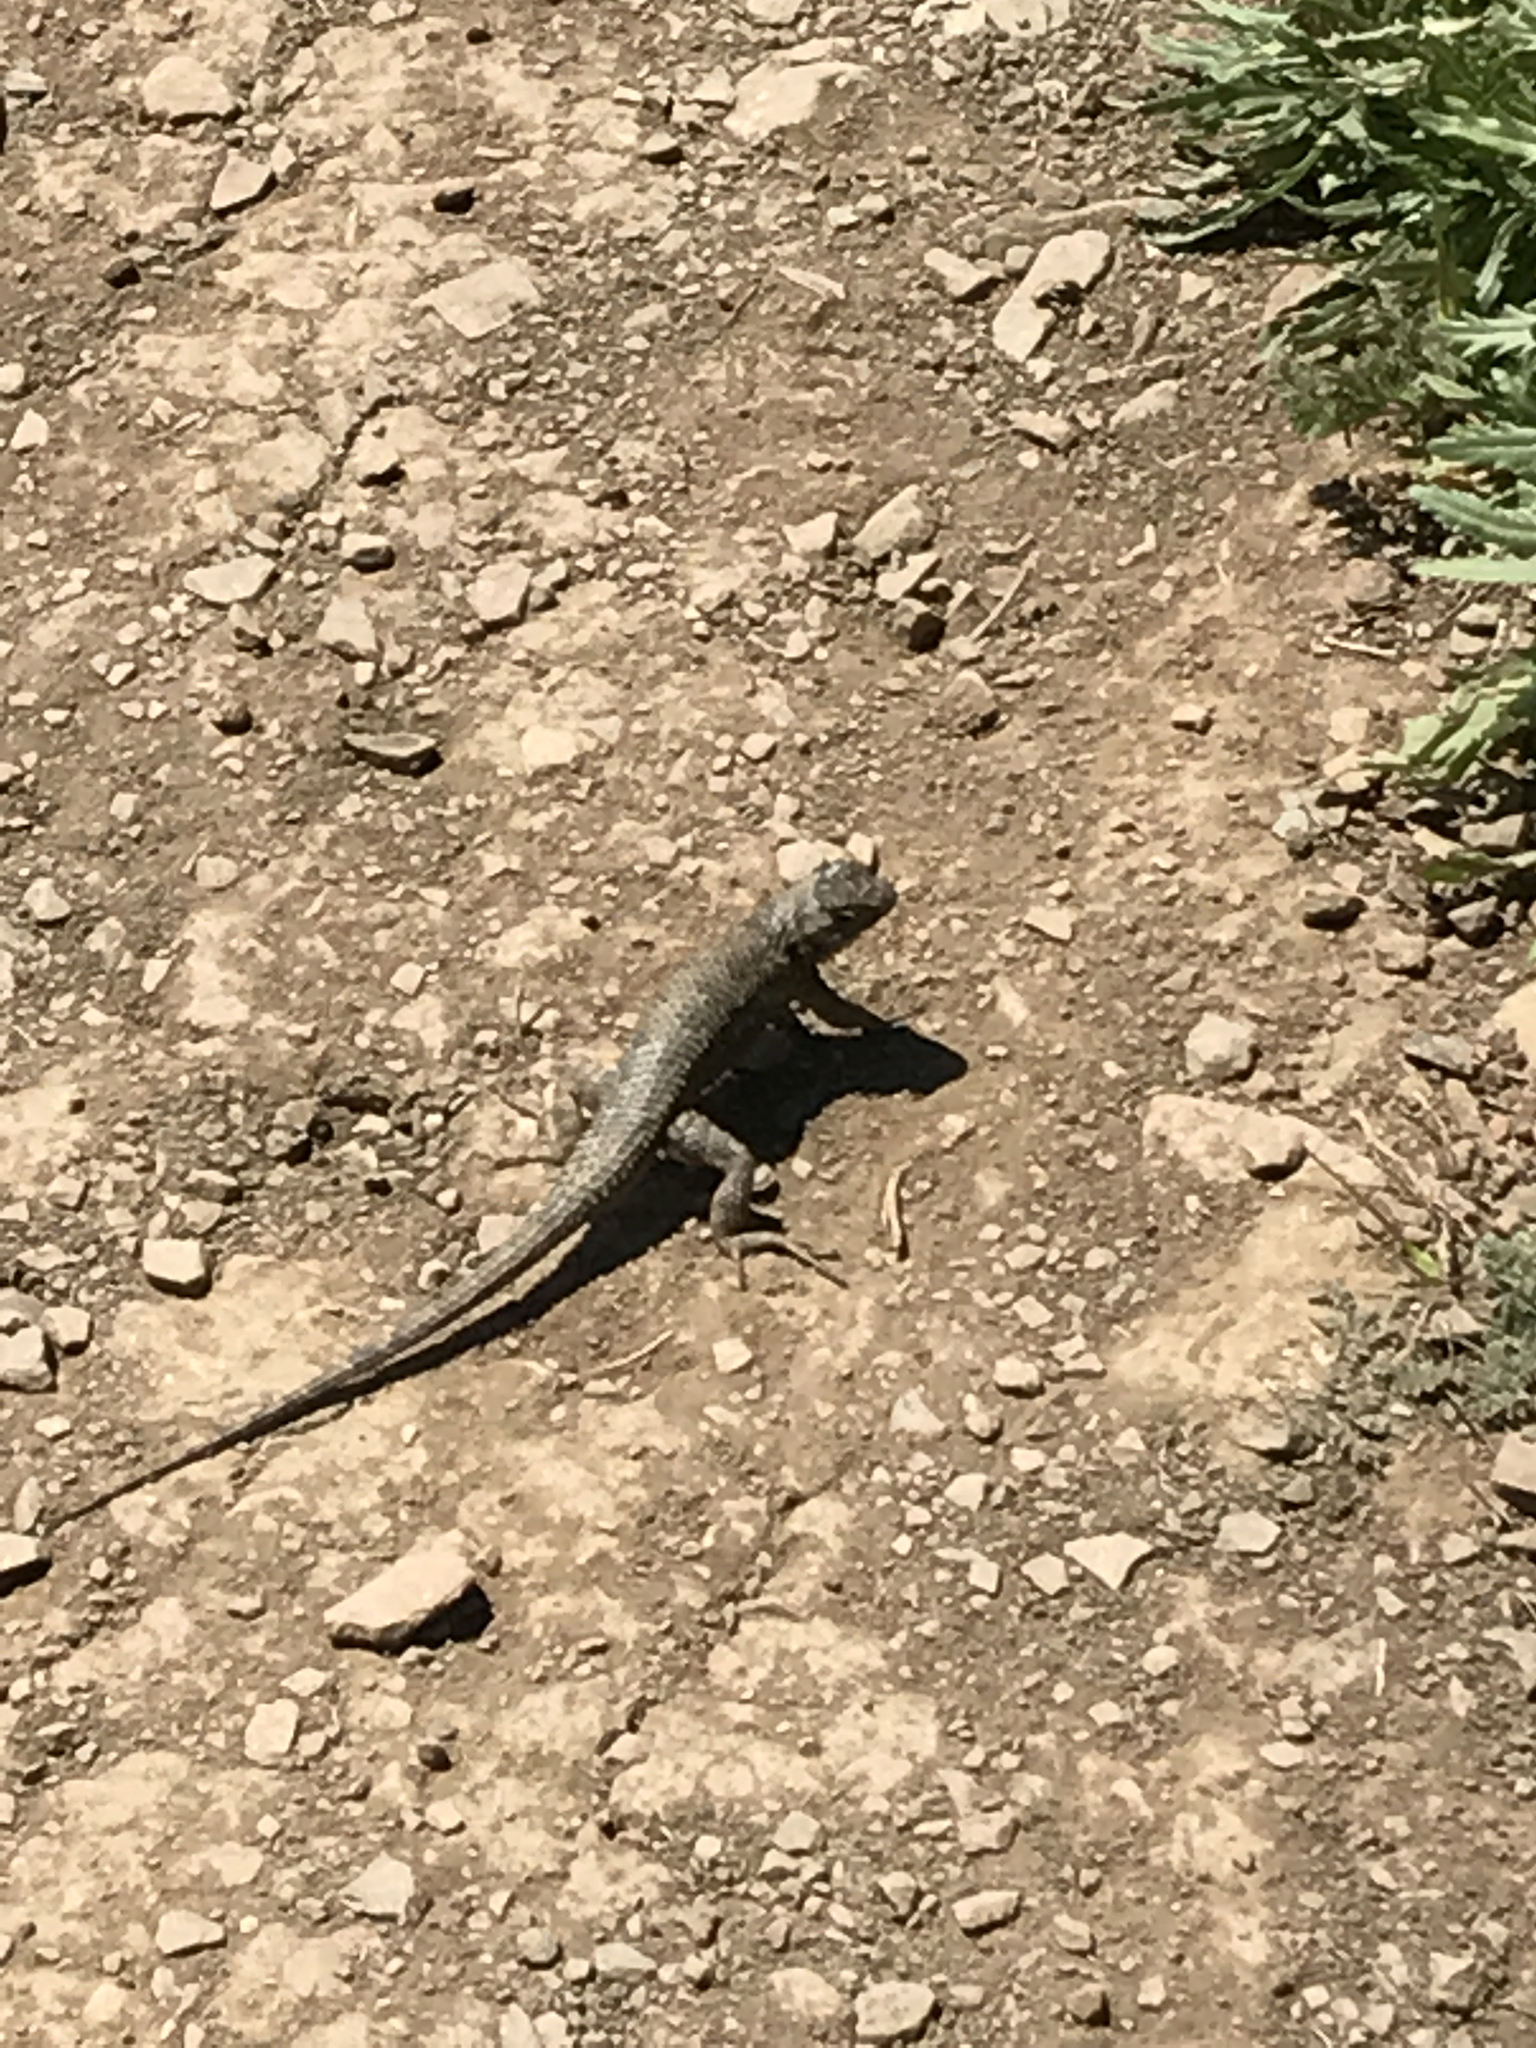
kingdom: Animalia
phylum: Chordata
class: Squamata
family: Phrynosomatidae
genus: Sceloporus
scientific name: Sceloporus occidentalis
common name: Western fence lizard
